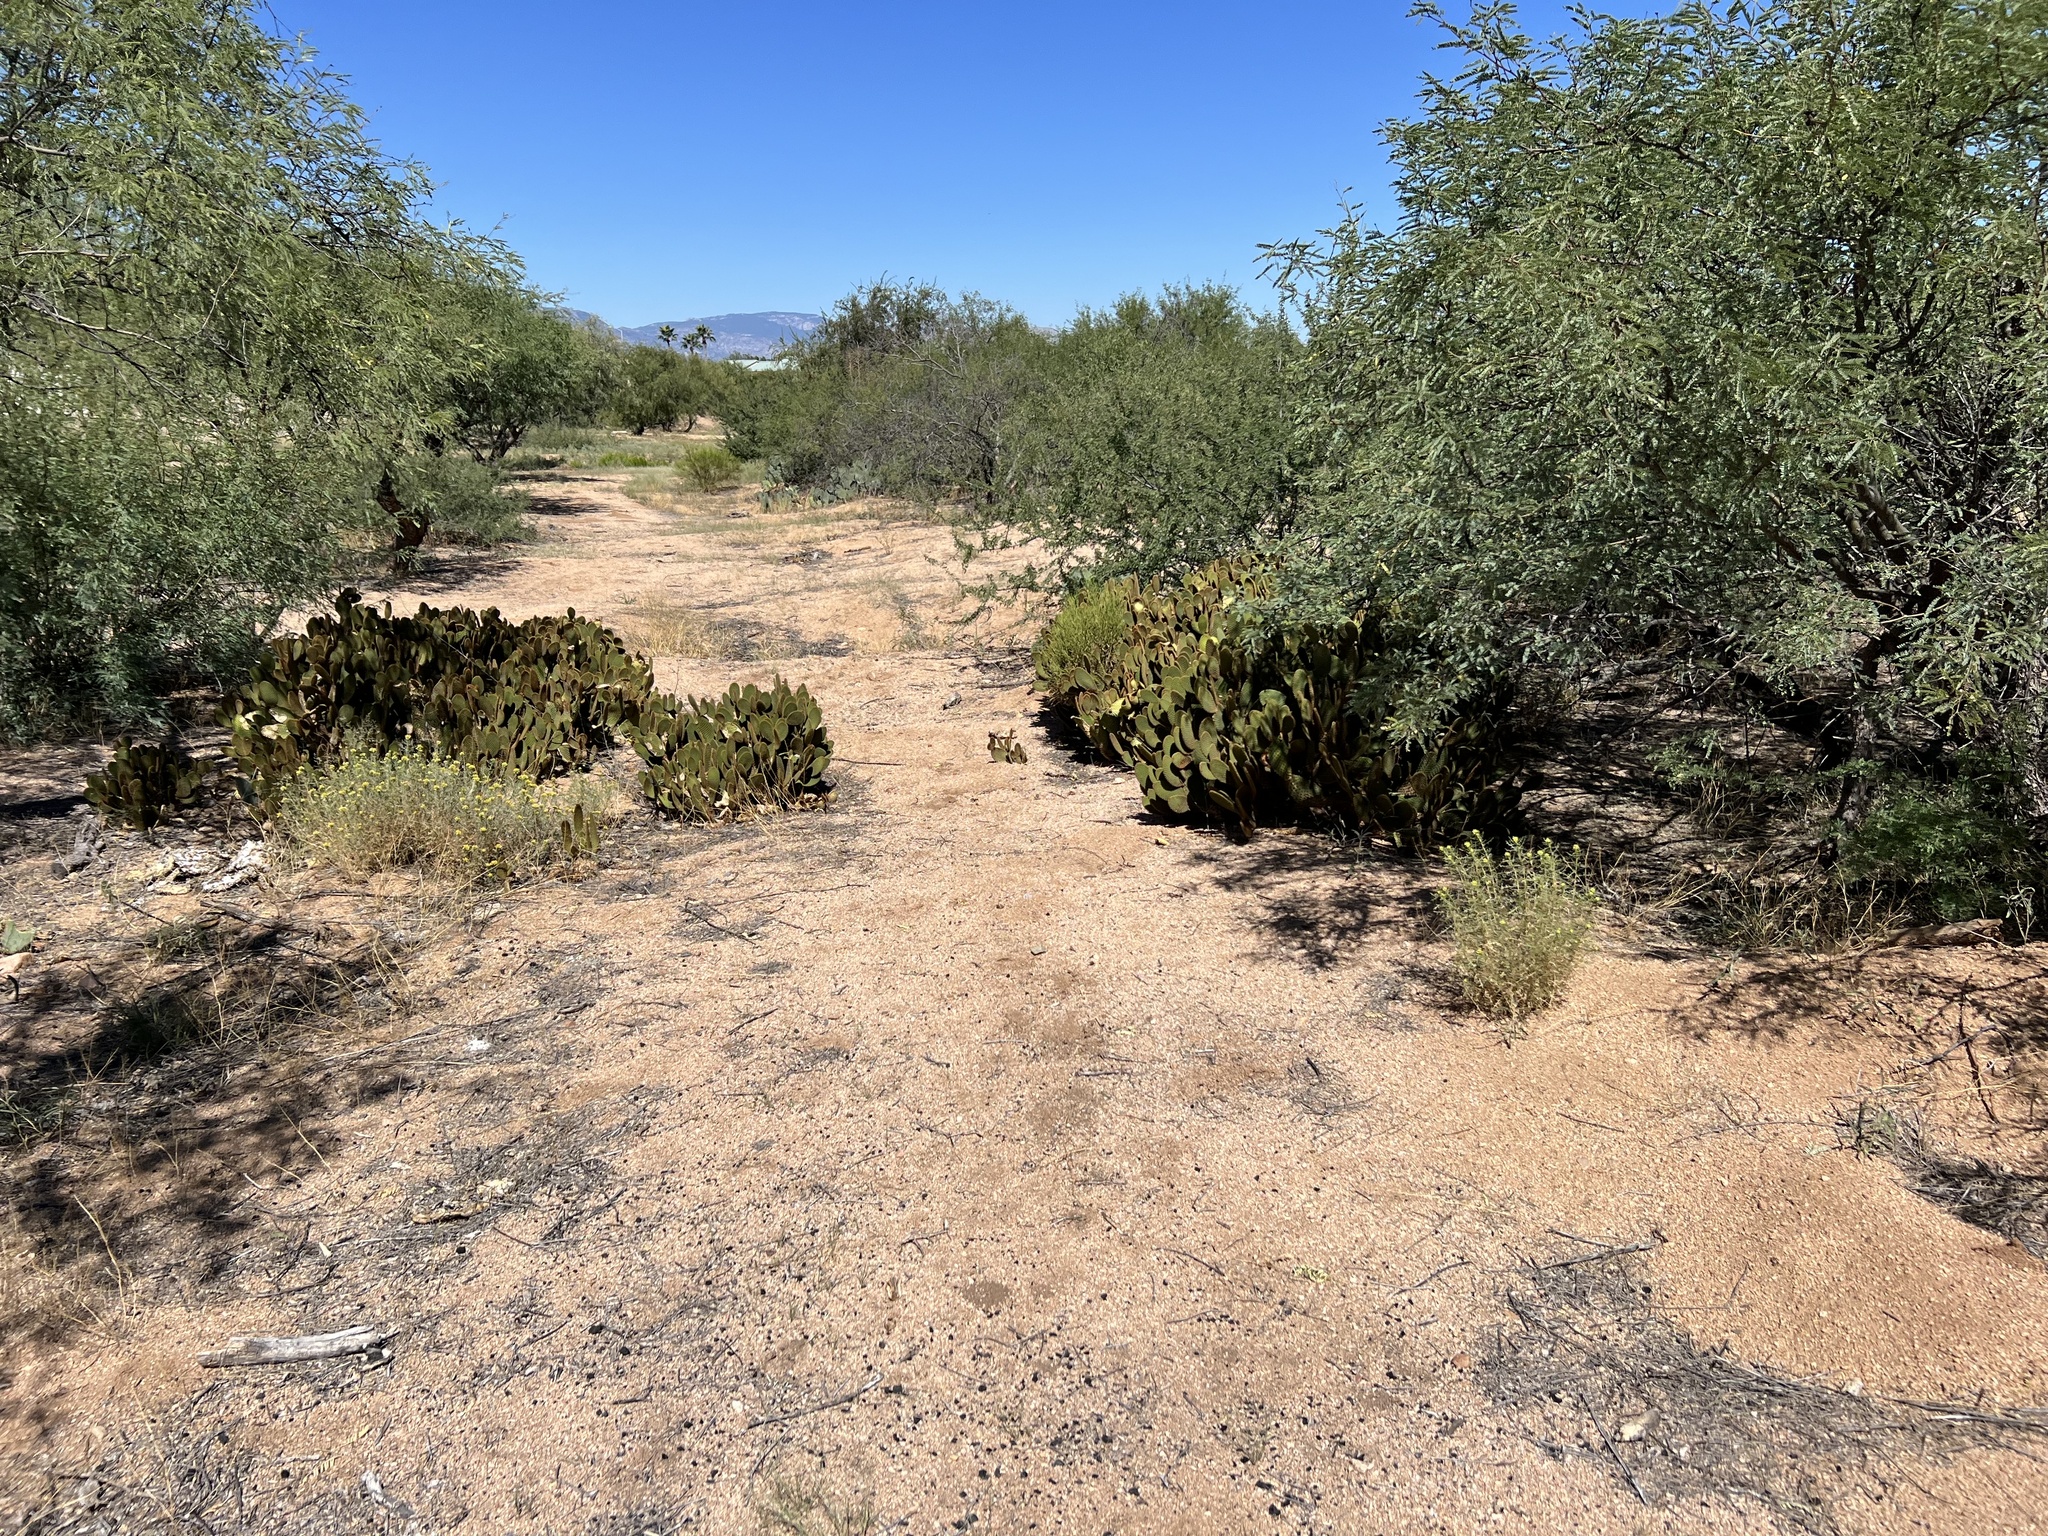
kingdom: Plantae
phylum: Tracheophyta
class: Magnoliopsida
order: Caryophyllales
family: Cactaceae
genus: Opuntia
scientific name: Opuntia microdasys
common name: Angel's-wings
